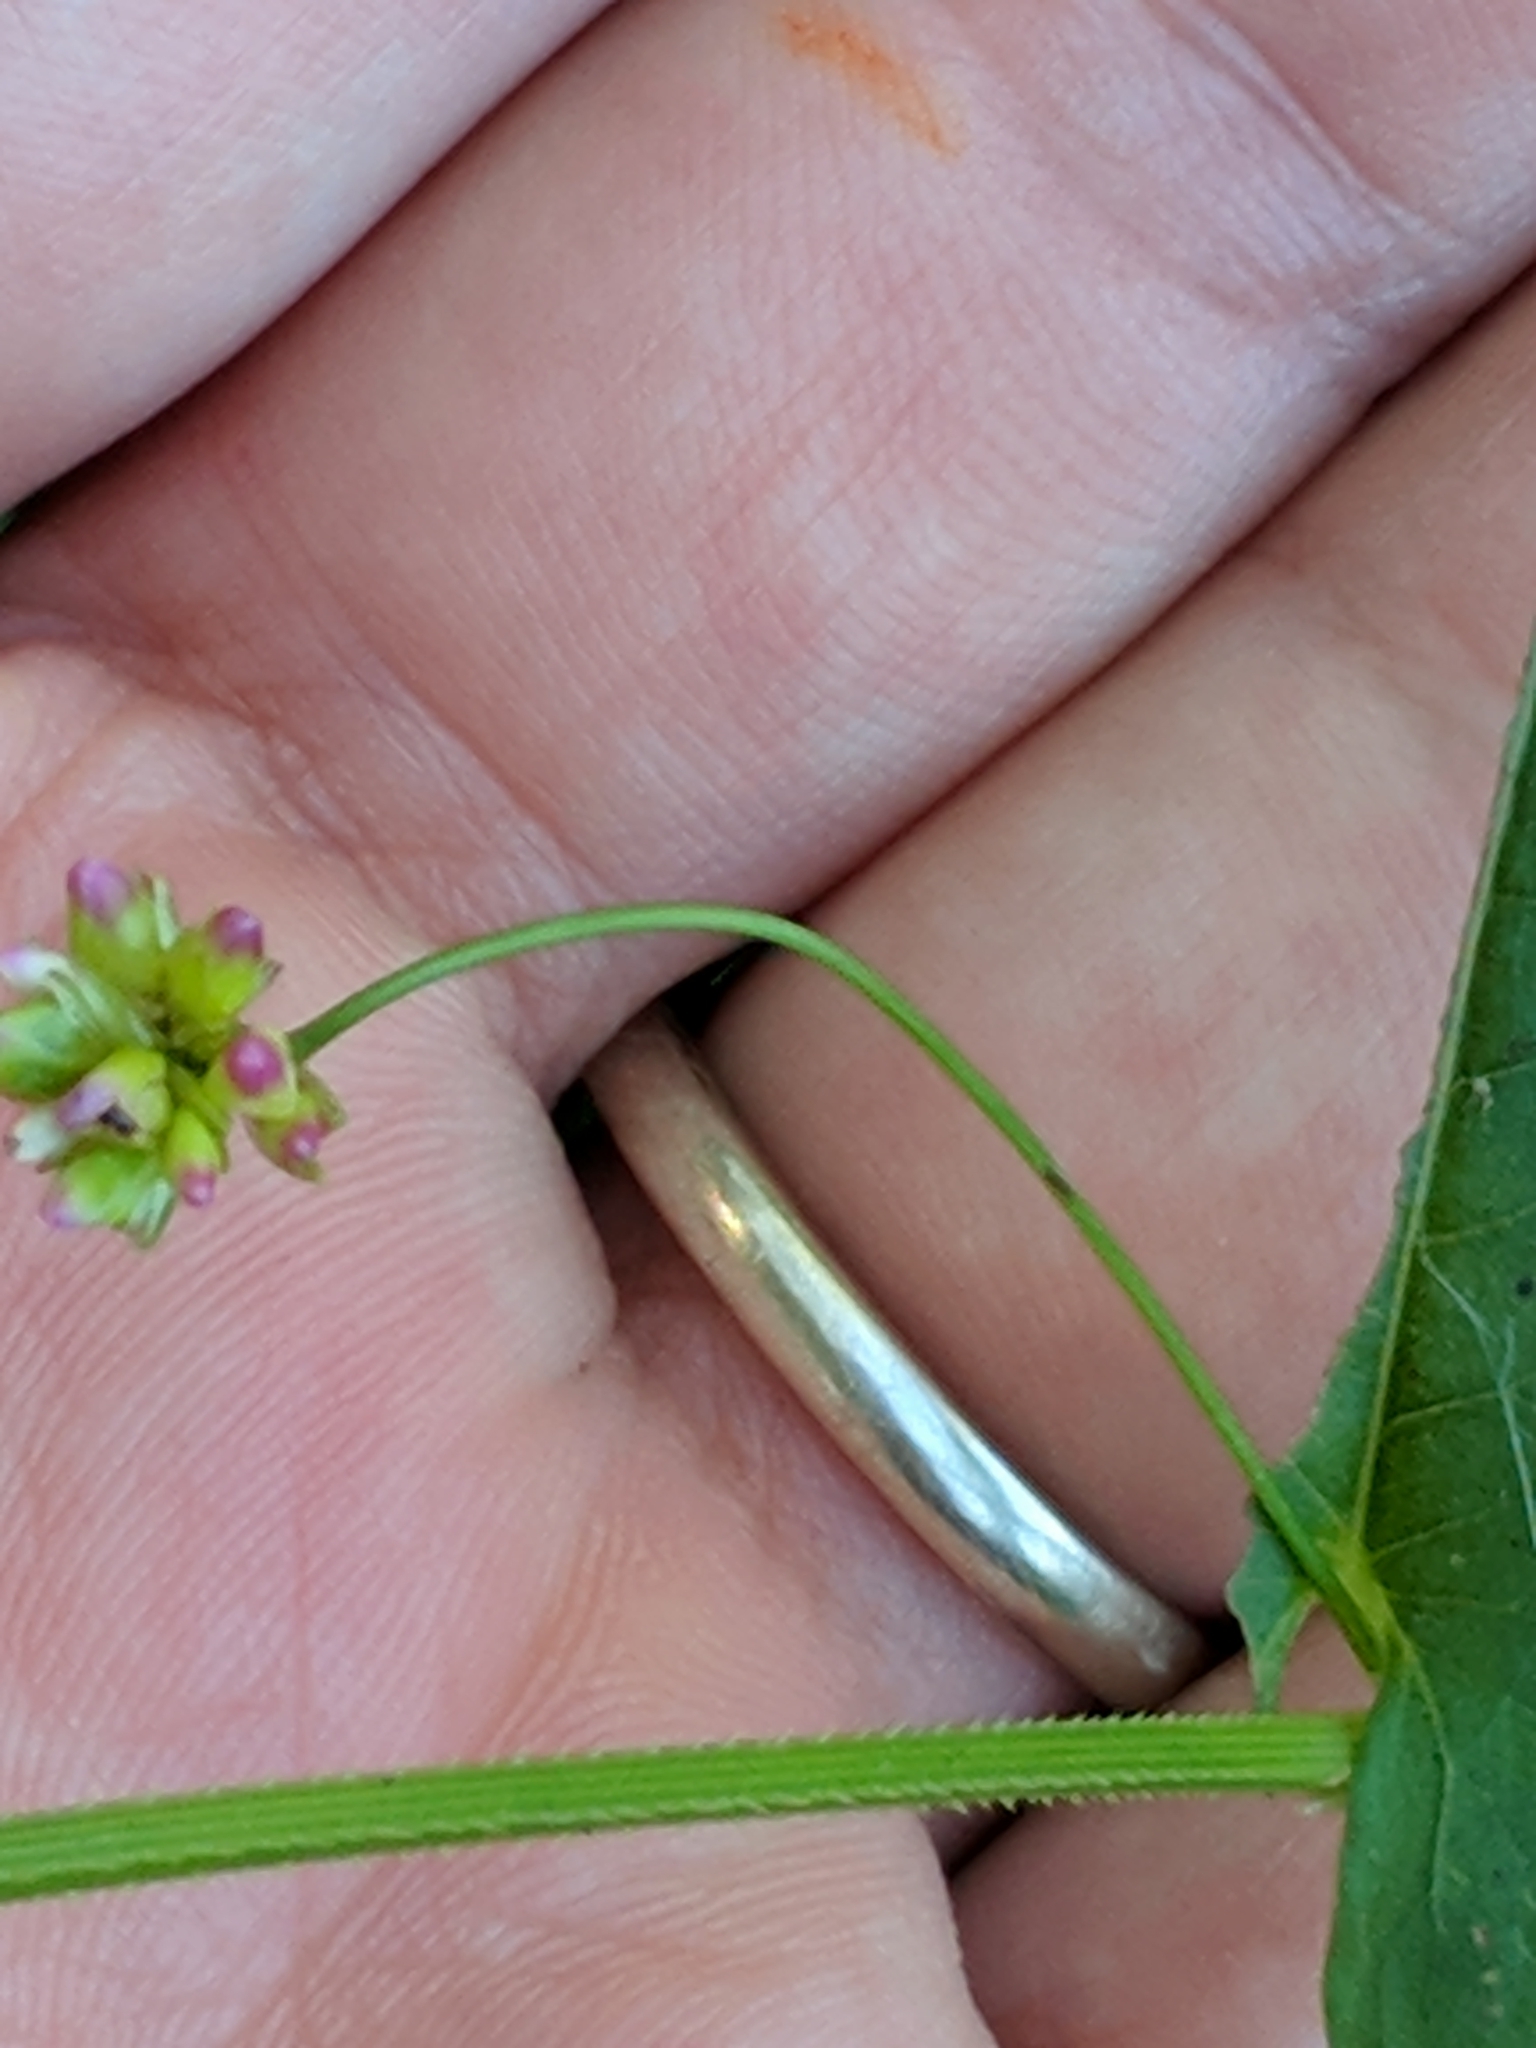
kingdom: Plantae
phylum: Tracheophyta
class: Magnoliopsida
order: Caryophyllales
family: Polygonaceae
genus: Persicaria
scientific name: Persicaria sagittata
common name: American tearthumb
